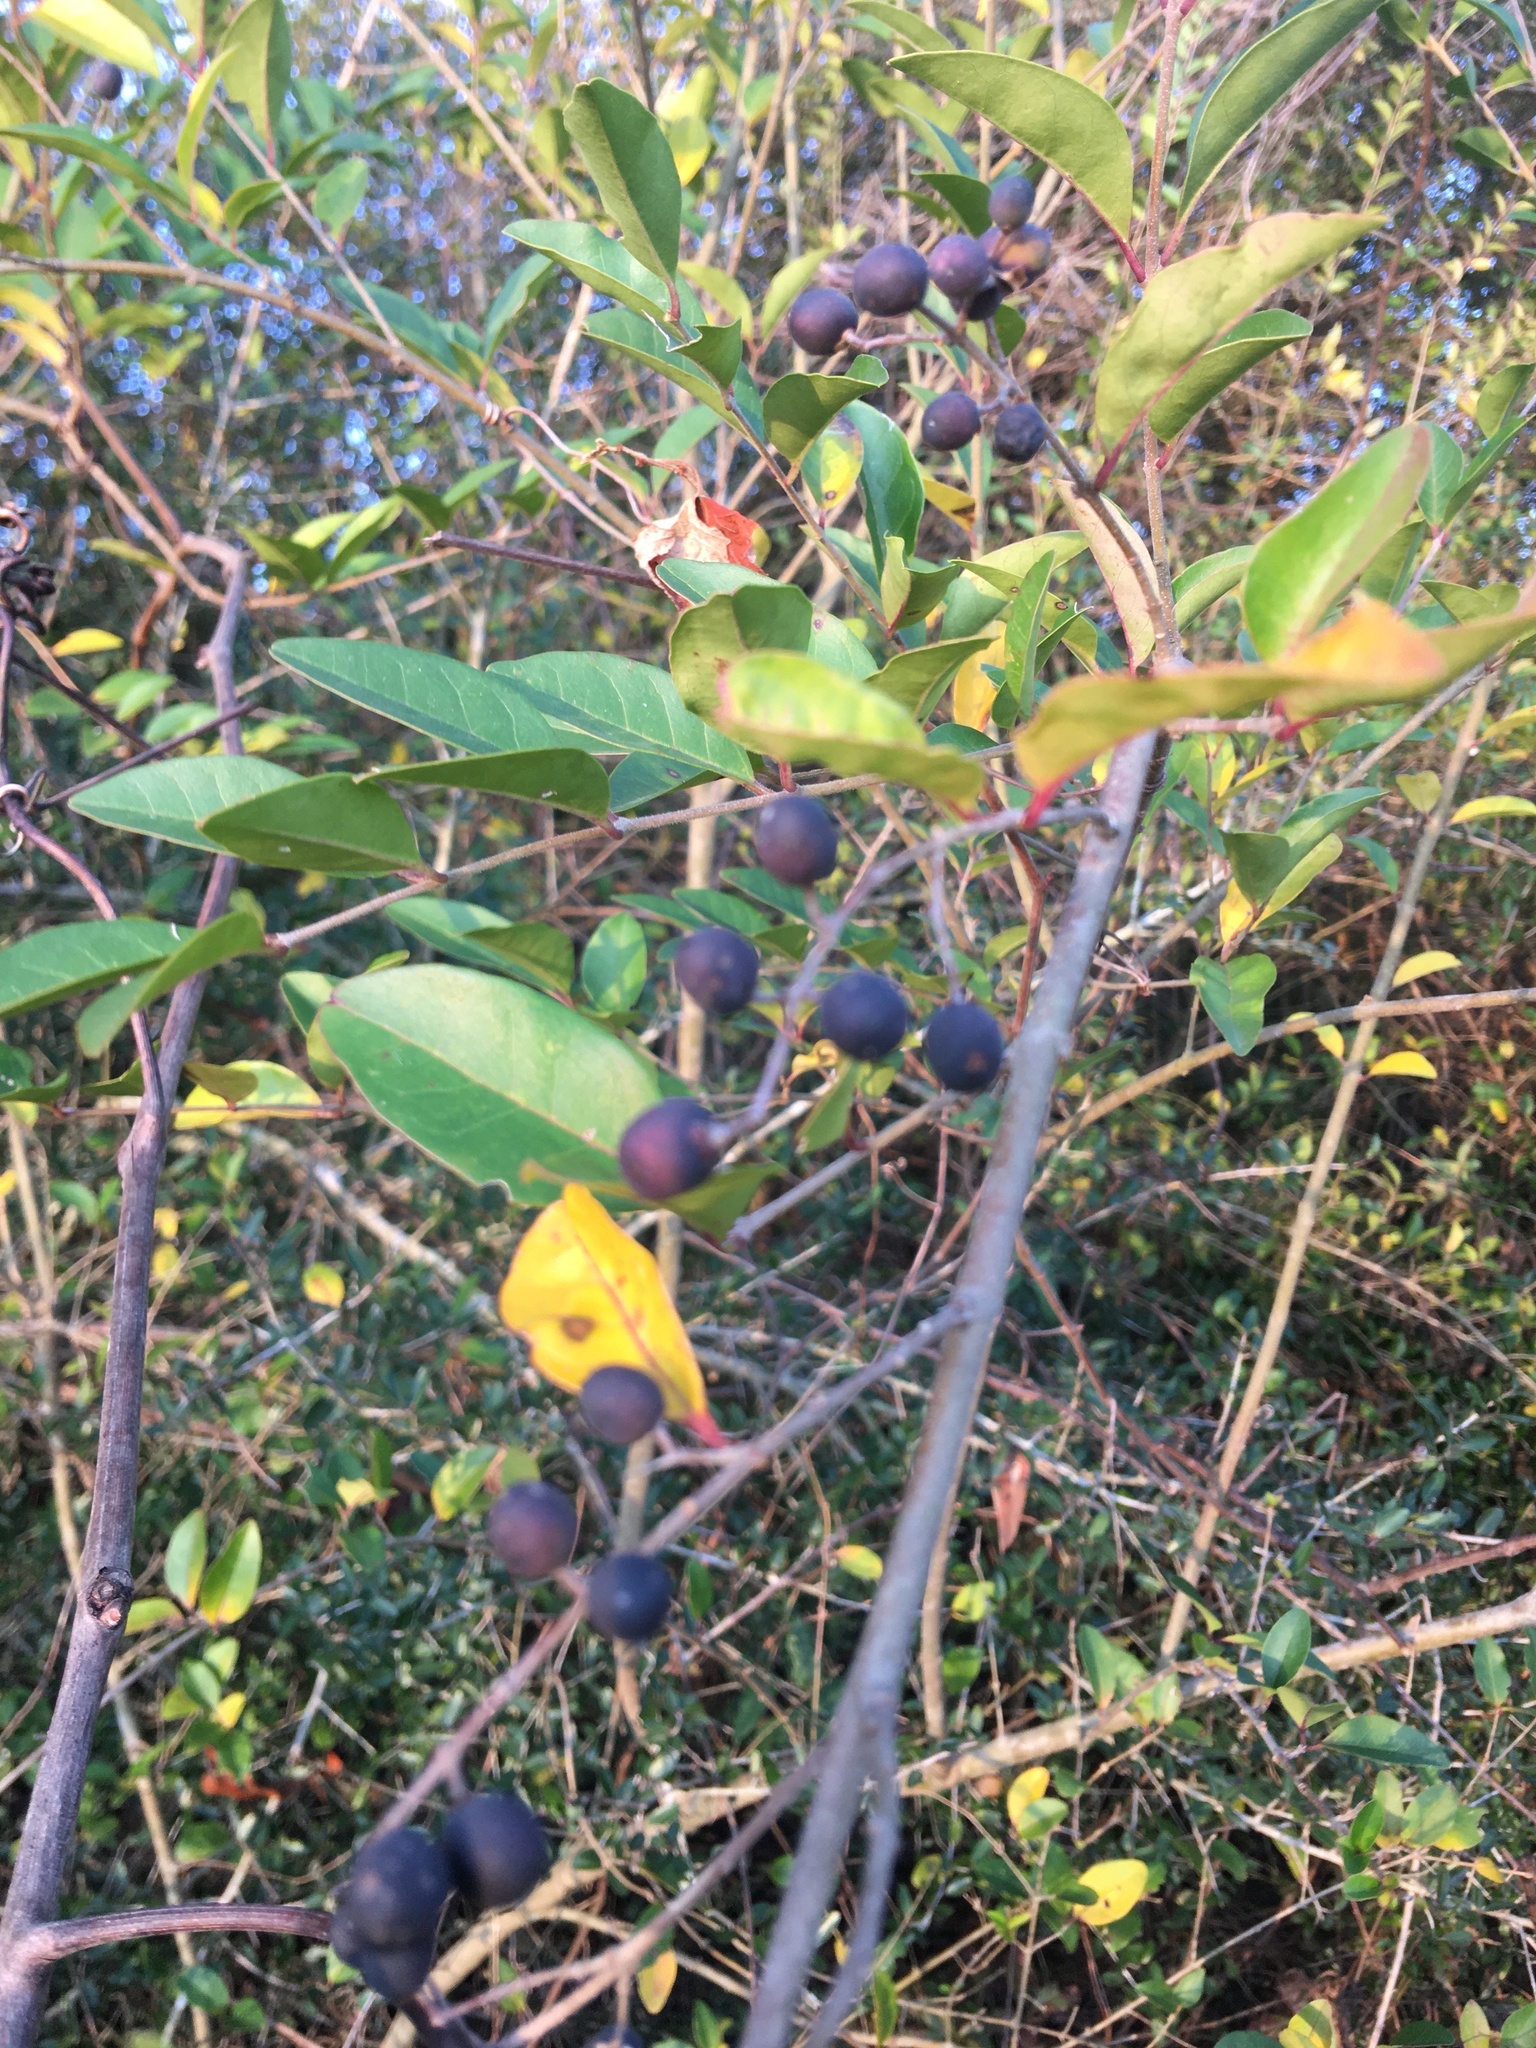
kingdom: Plantae
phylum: Tracheophyta
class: Magnoliopsida
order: Lamiales
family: Oleaceae
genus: Ligustrum
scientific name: Ligustrum sinense
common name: Chinese privet
